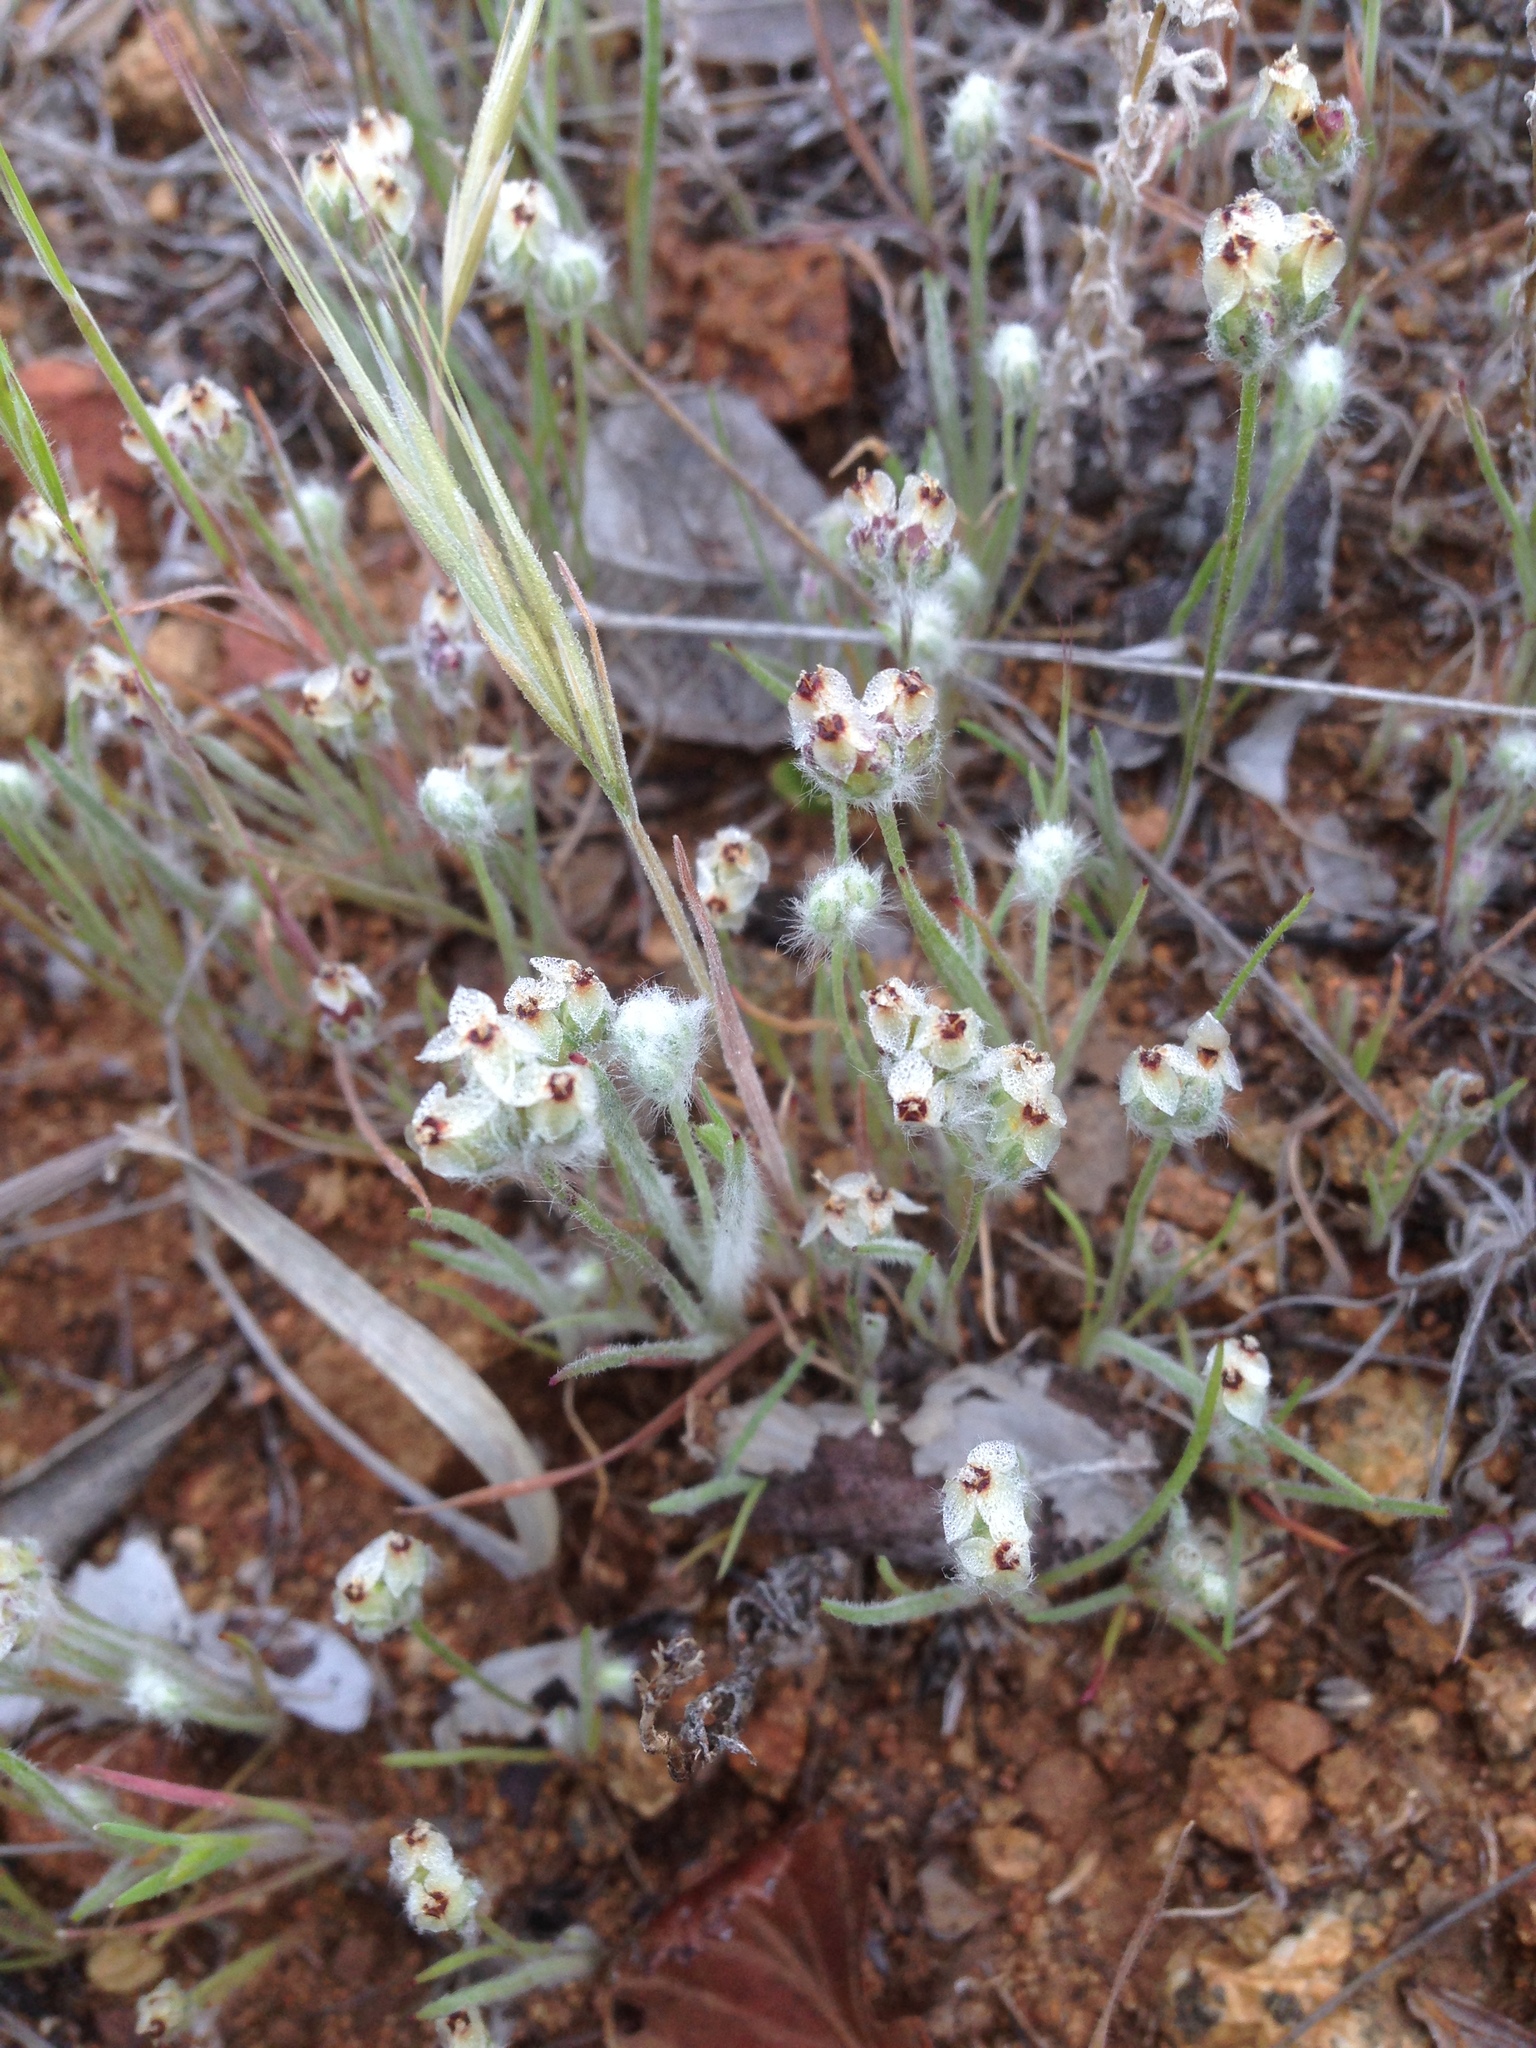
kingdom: Plantae
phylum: Tracheophyta
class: Magnoliopsida
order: Lamiales
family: Plantaginaceae
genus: Plantago
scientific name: Plantago erecta
